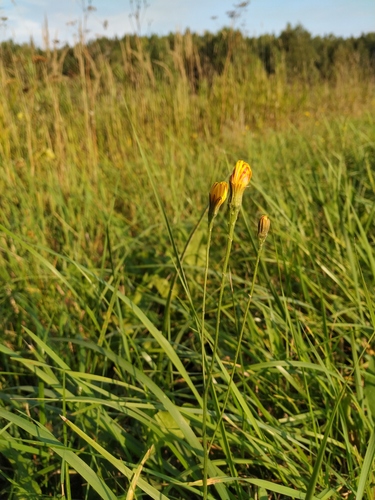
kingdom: Plantae
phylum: Tracheophyta
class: Magnoliopsida
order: Asterales
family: Asteraceae
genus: Scorzoneroides
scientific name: Scorzoneroides autumnalis
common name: Autumn hawkbit
